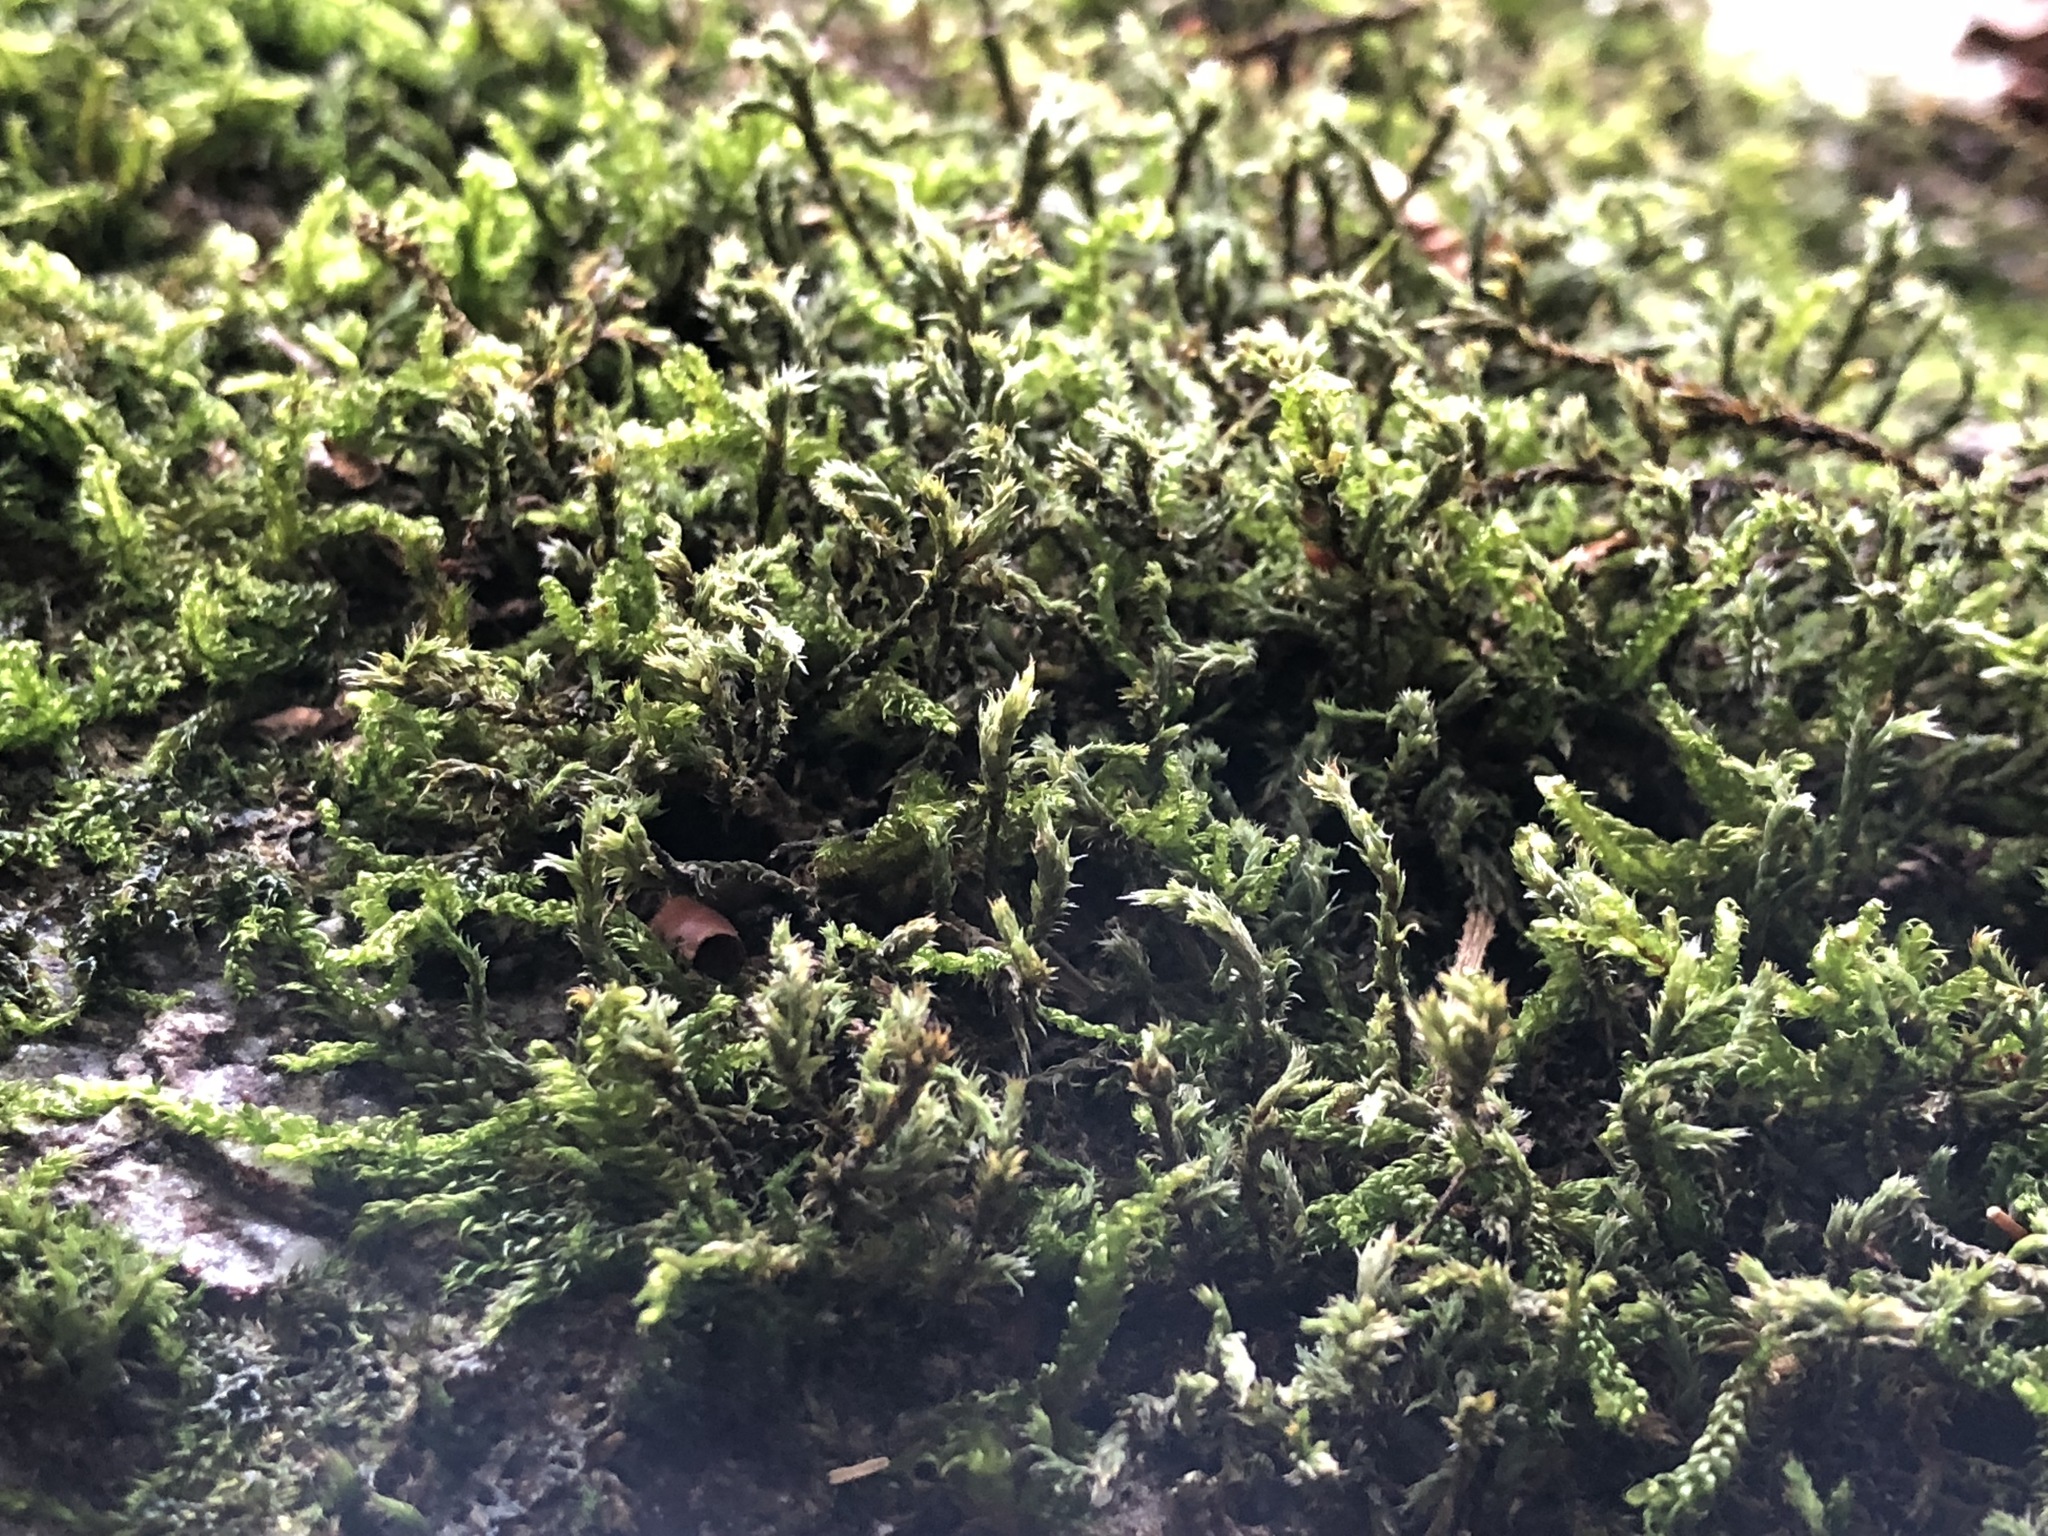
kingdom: Plantae
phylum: Bryophyta
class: Bryopsida
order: Hedwigiales
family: Hedwigiaceae
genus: Hedwigia
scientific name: Hedwigia ciliata
